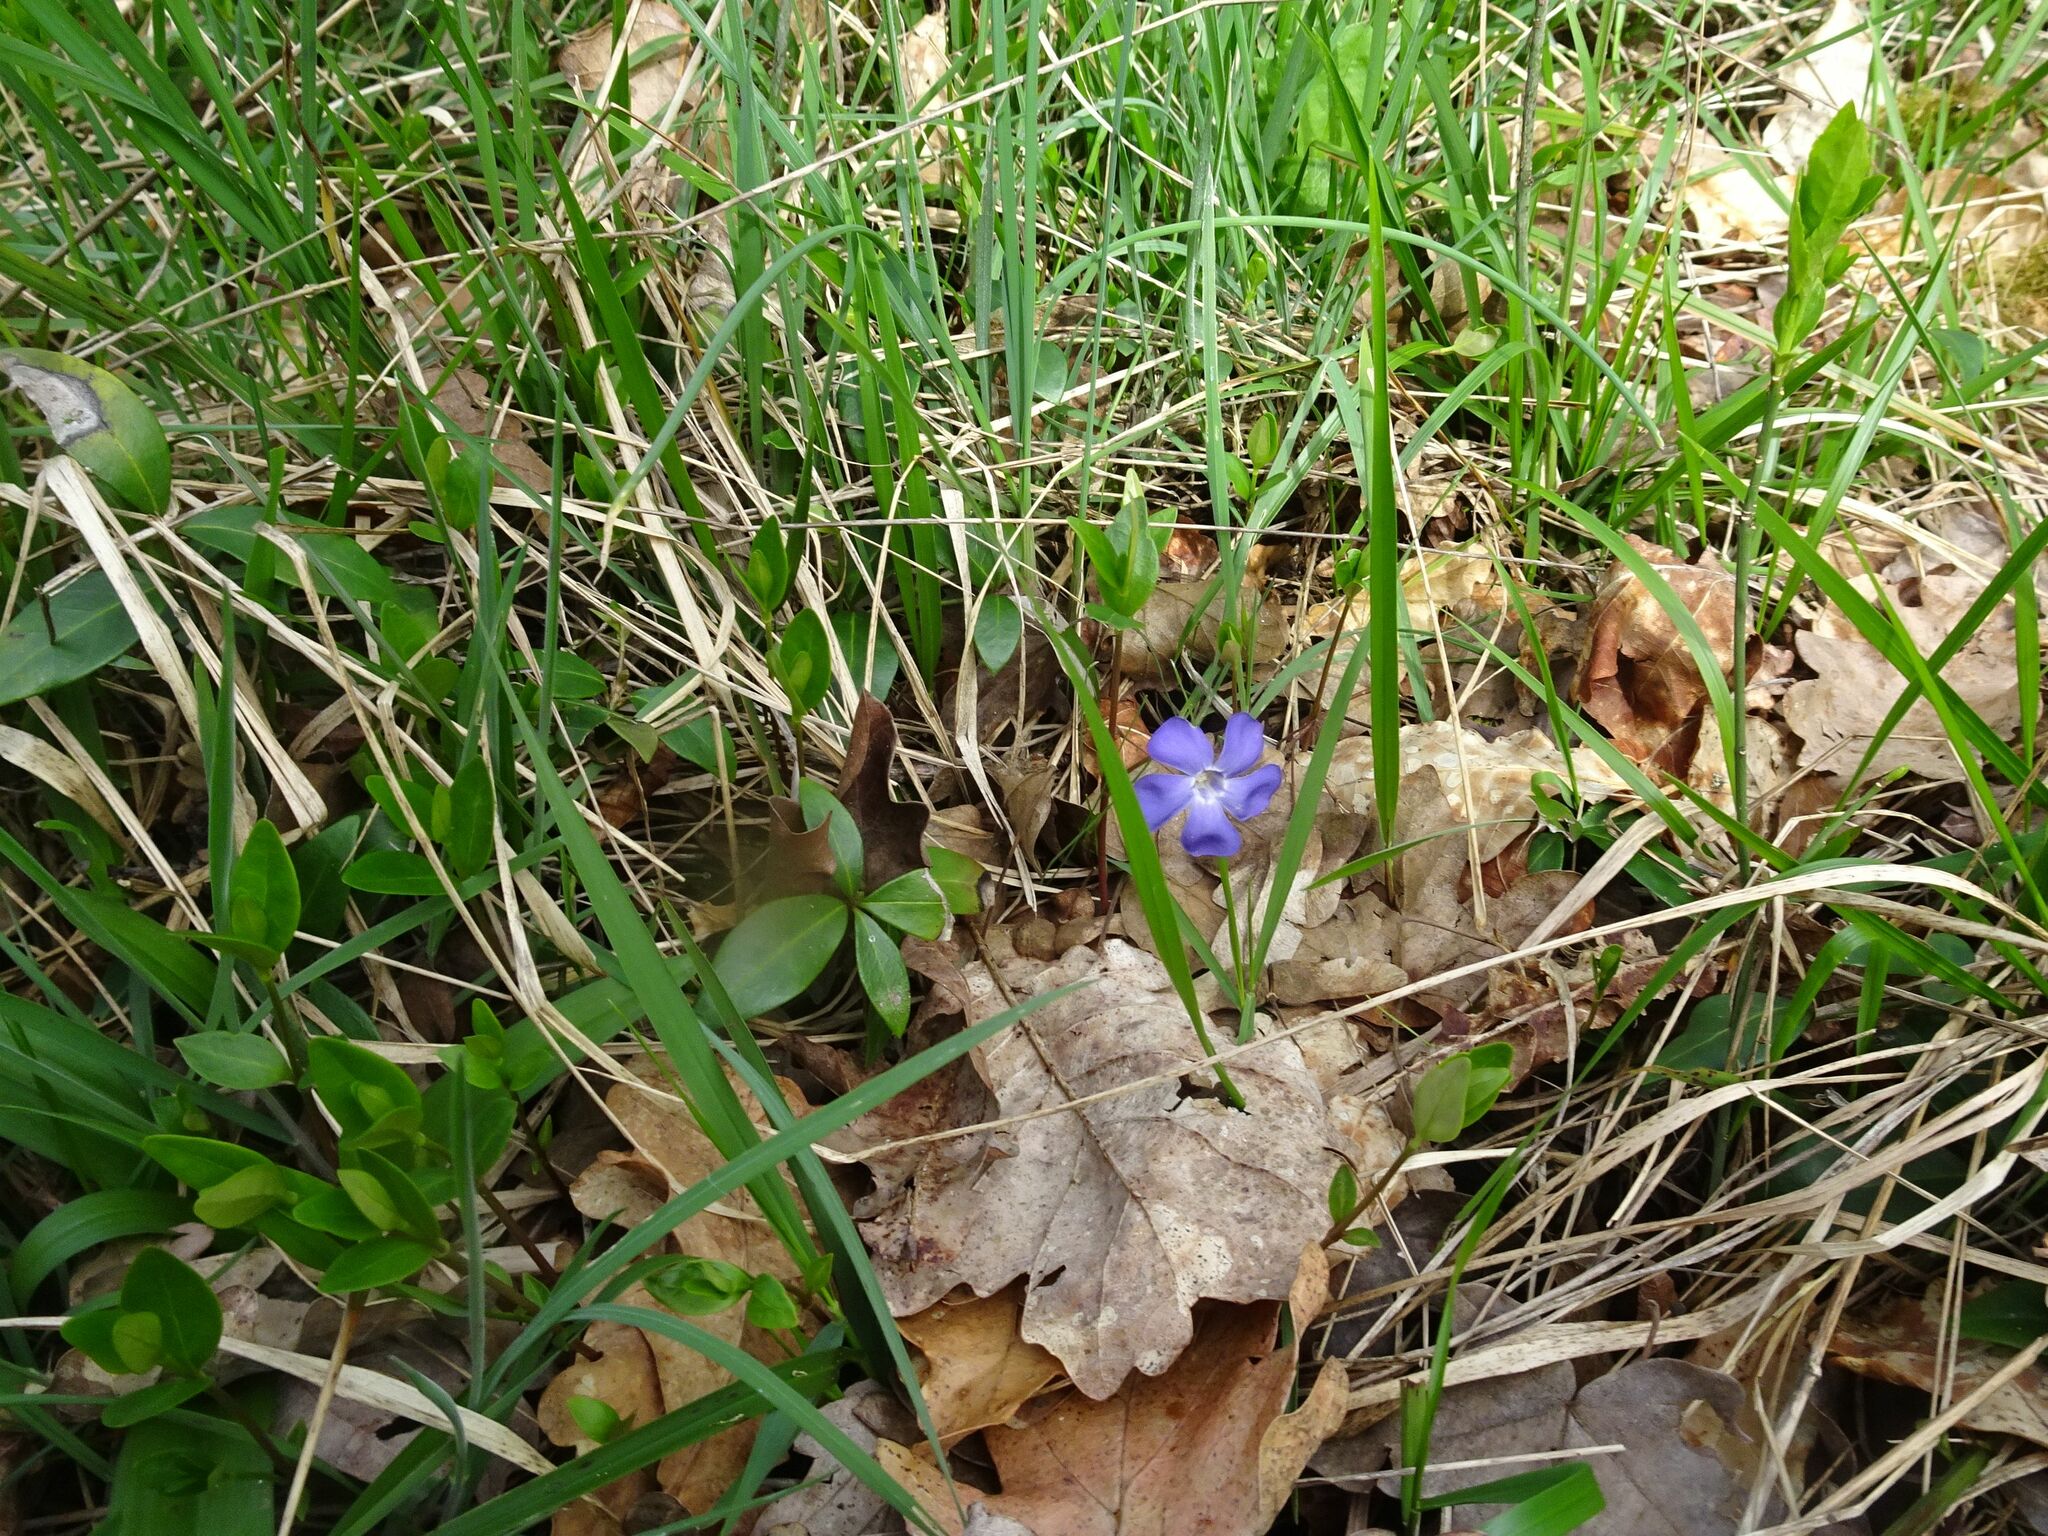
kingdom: Plantae
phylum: Tracheophyta
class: Magnoliopsida
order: Gentianales
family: Apocynaceae
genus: Vinca
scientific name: Vinca minor
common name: Lesser periwinkle
